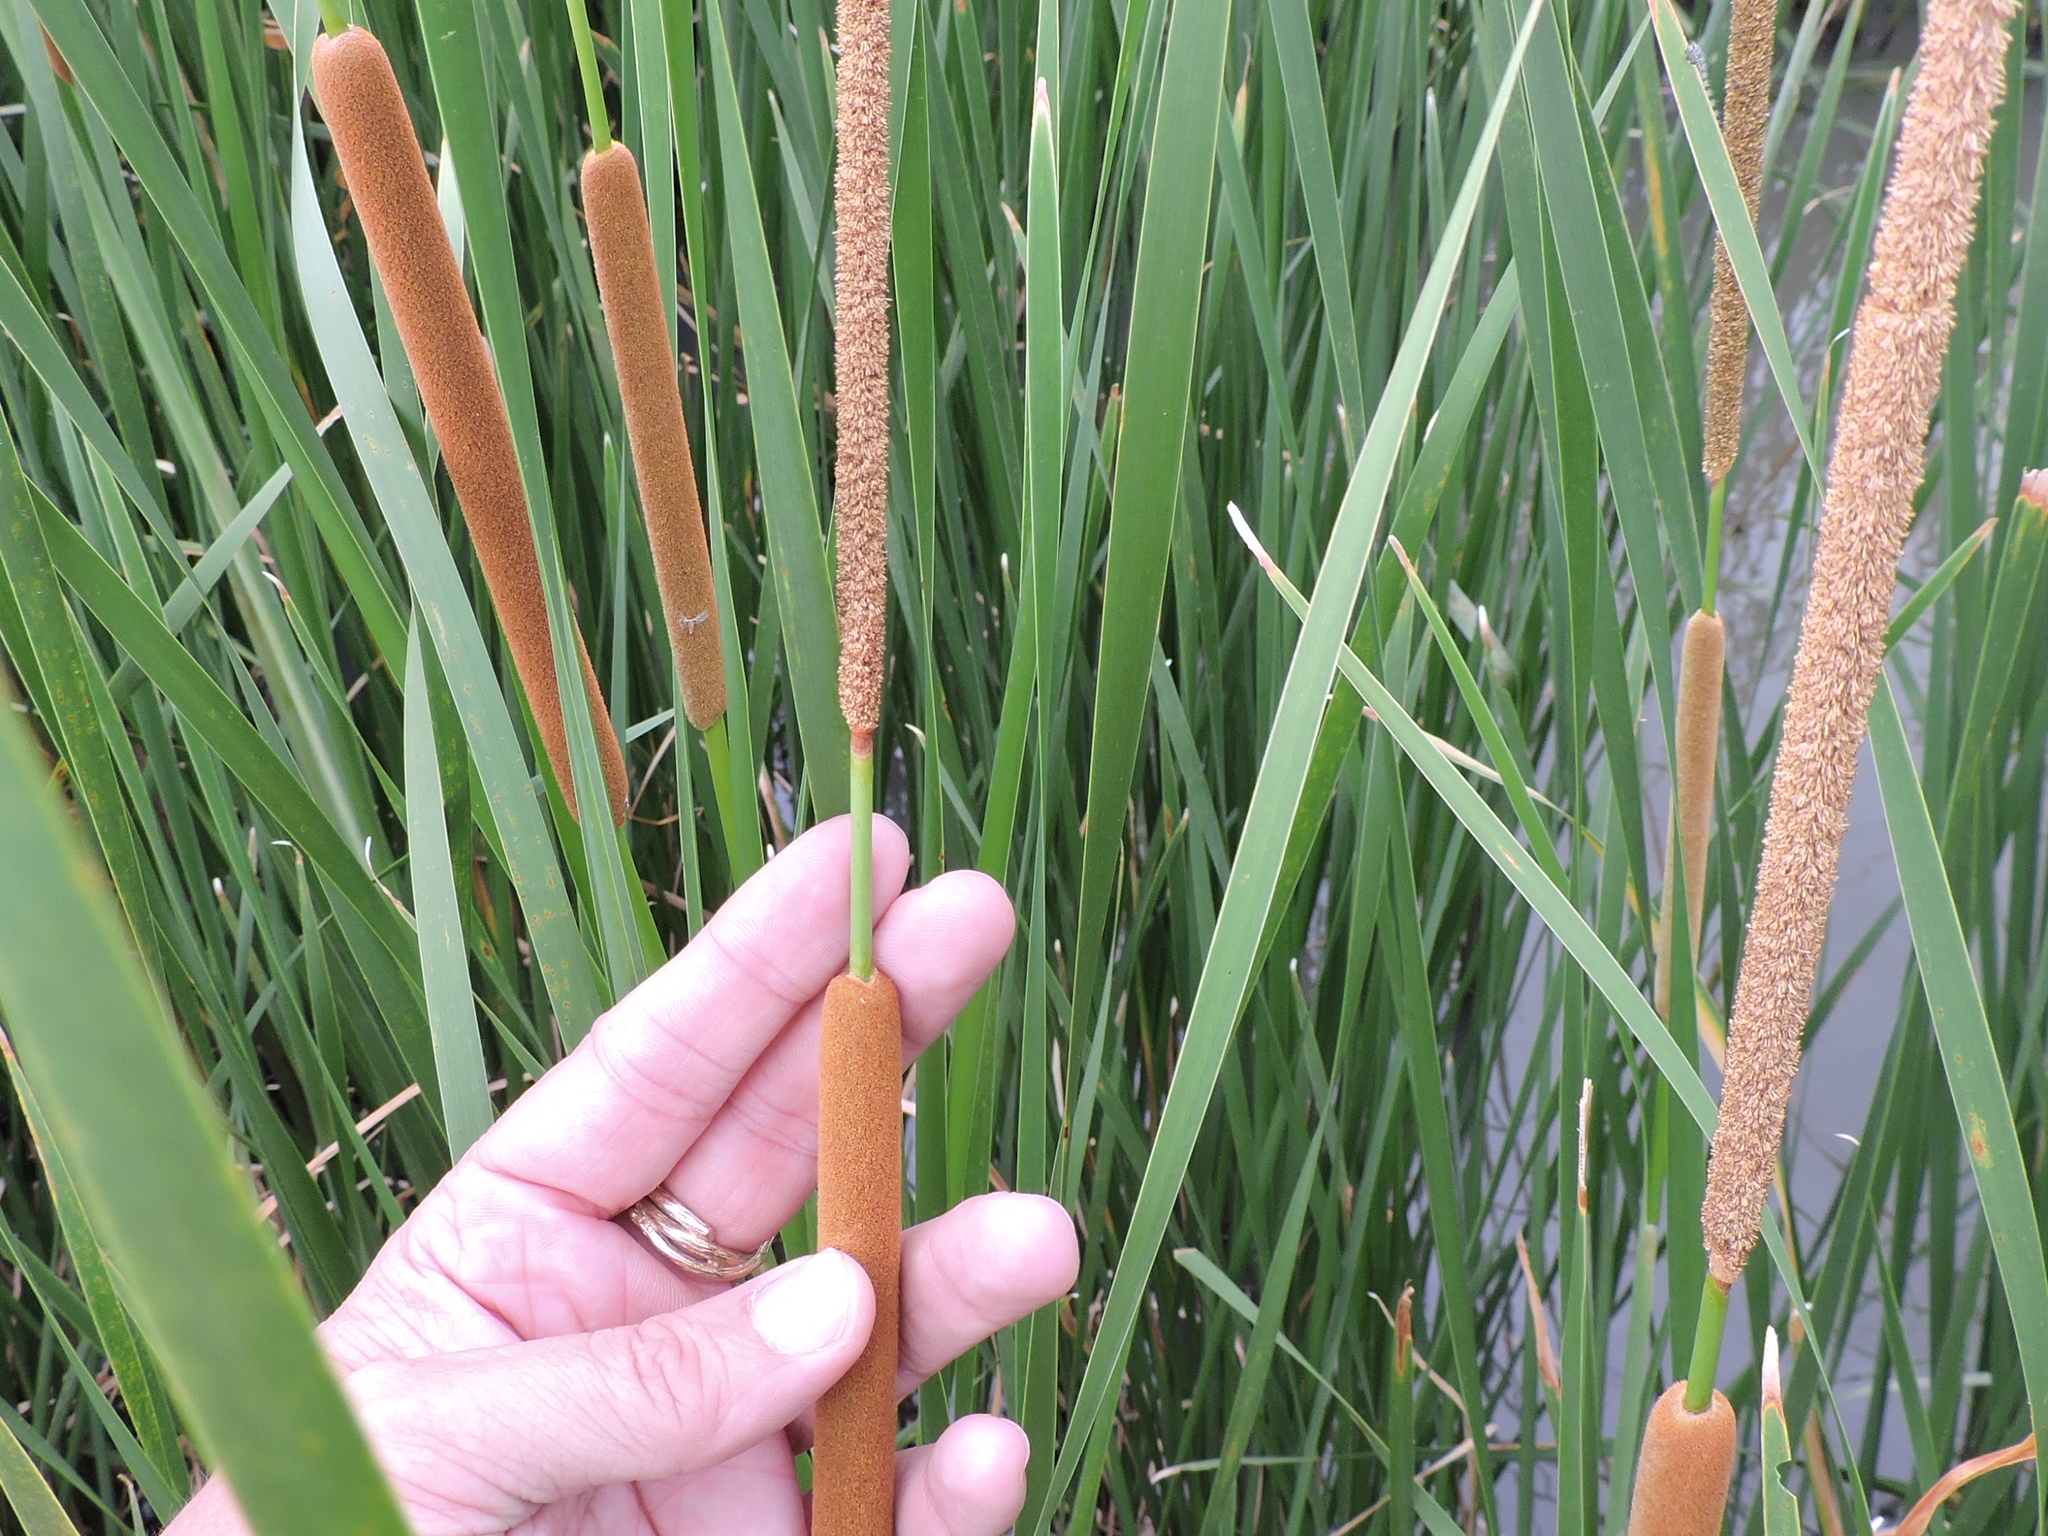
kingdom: Plantae
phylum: Tracheophyta
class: Liliopsida
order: Poales
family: Typhaceae
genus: Typha
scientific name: Typha domingensis
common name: Southern cattail
